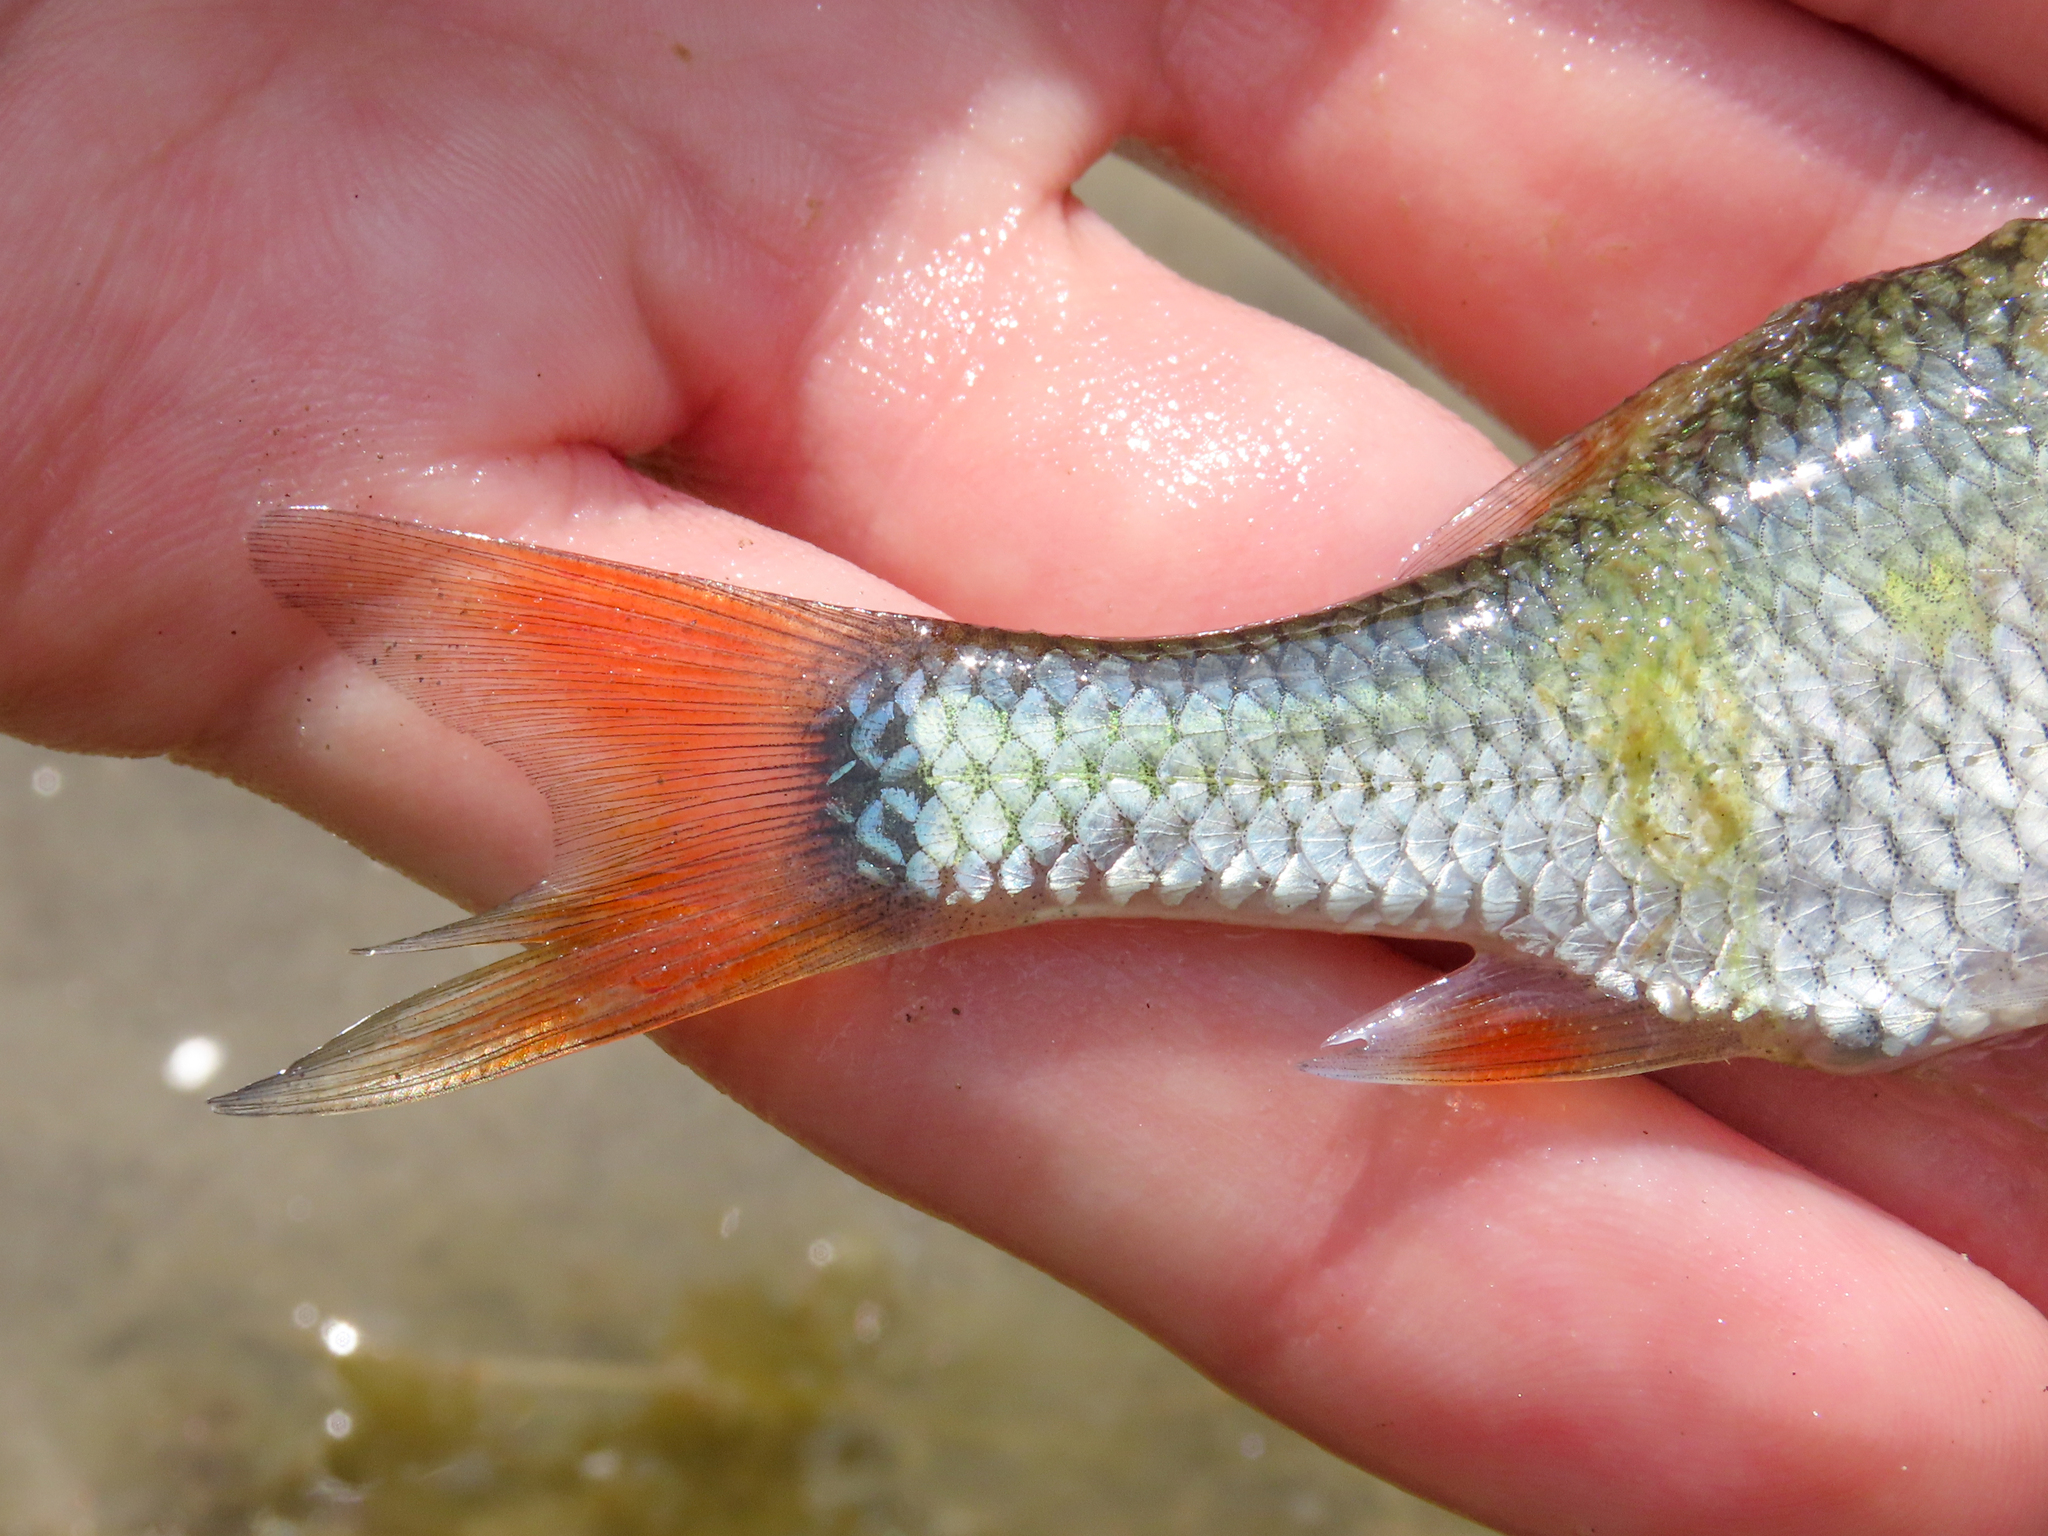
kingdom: Animalia
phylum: Chordata
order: Cypriniformes
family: Cyprinidae
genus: Scardinius
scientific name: Scardinius hesperidicus
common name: Italian rudd
